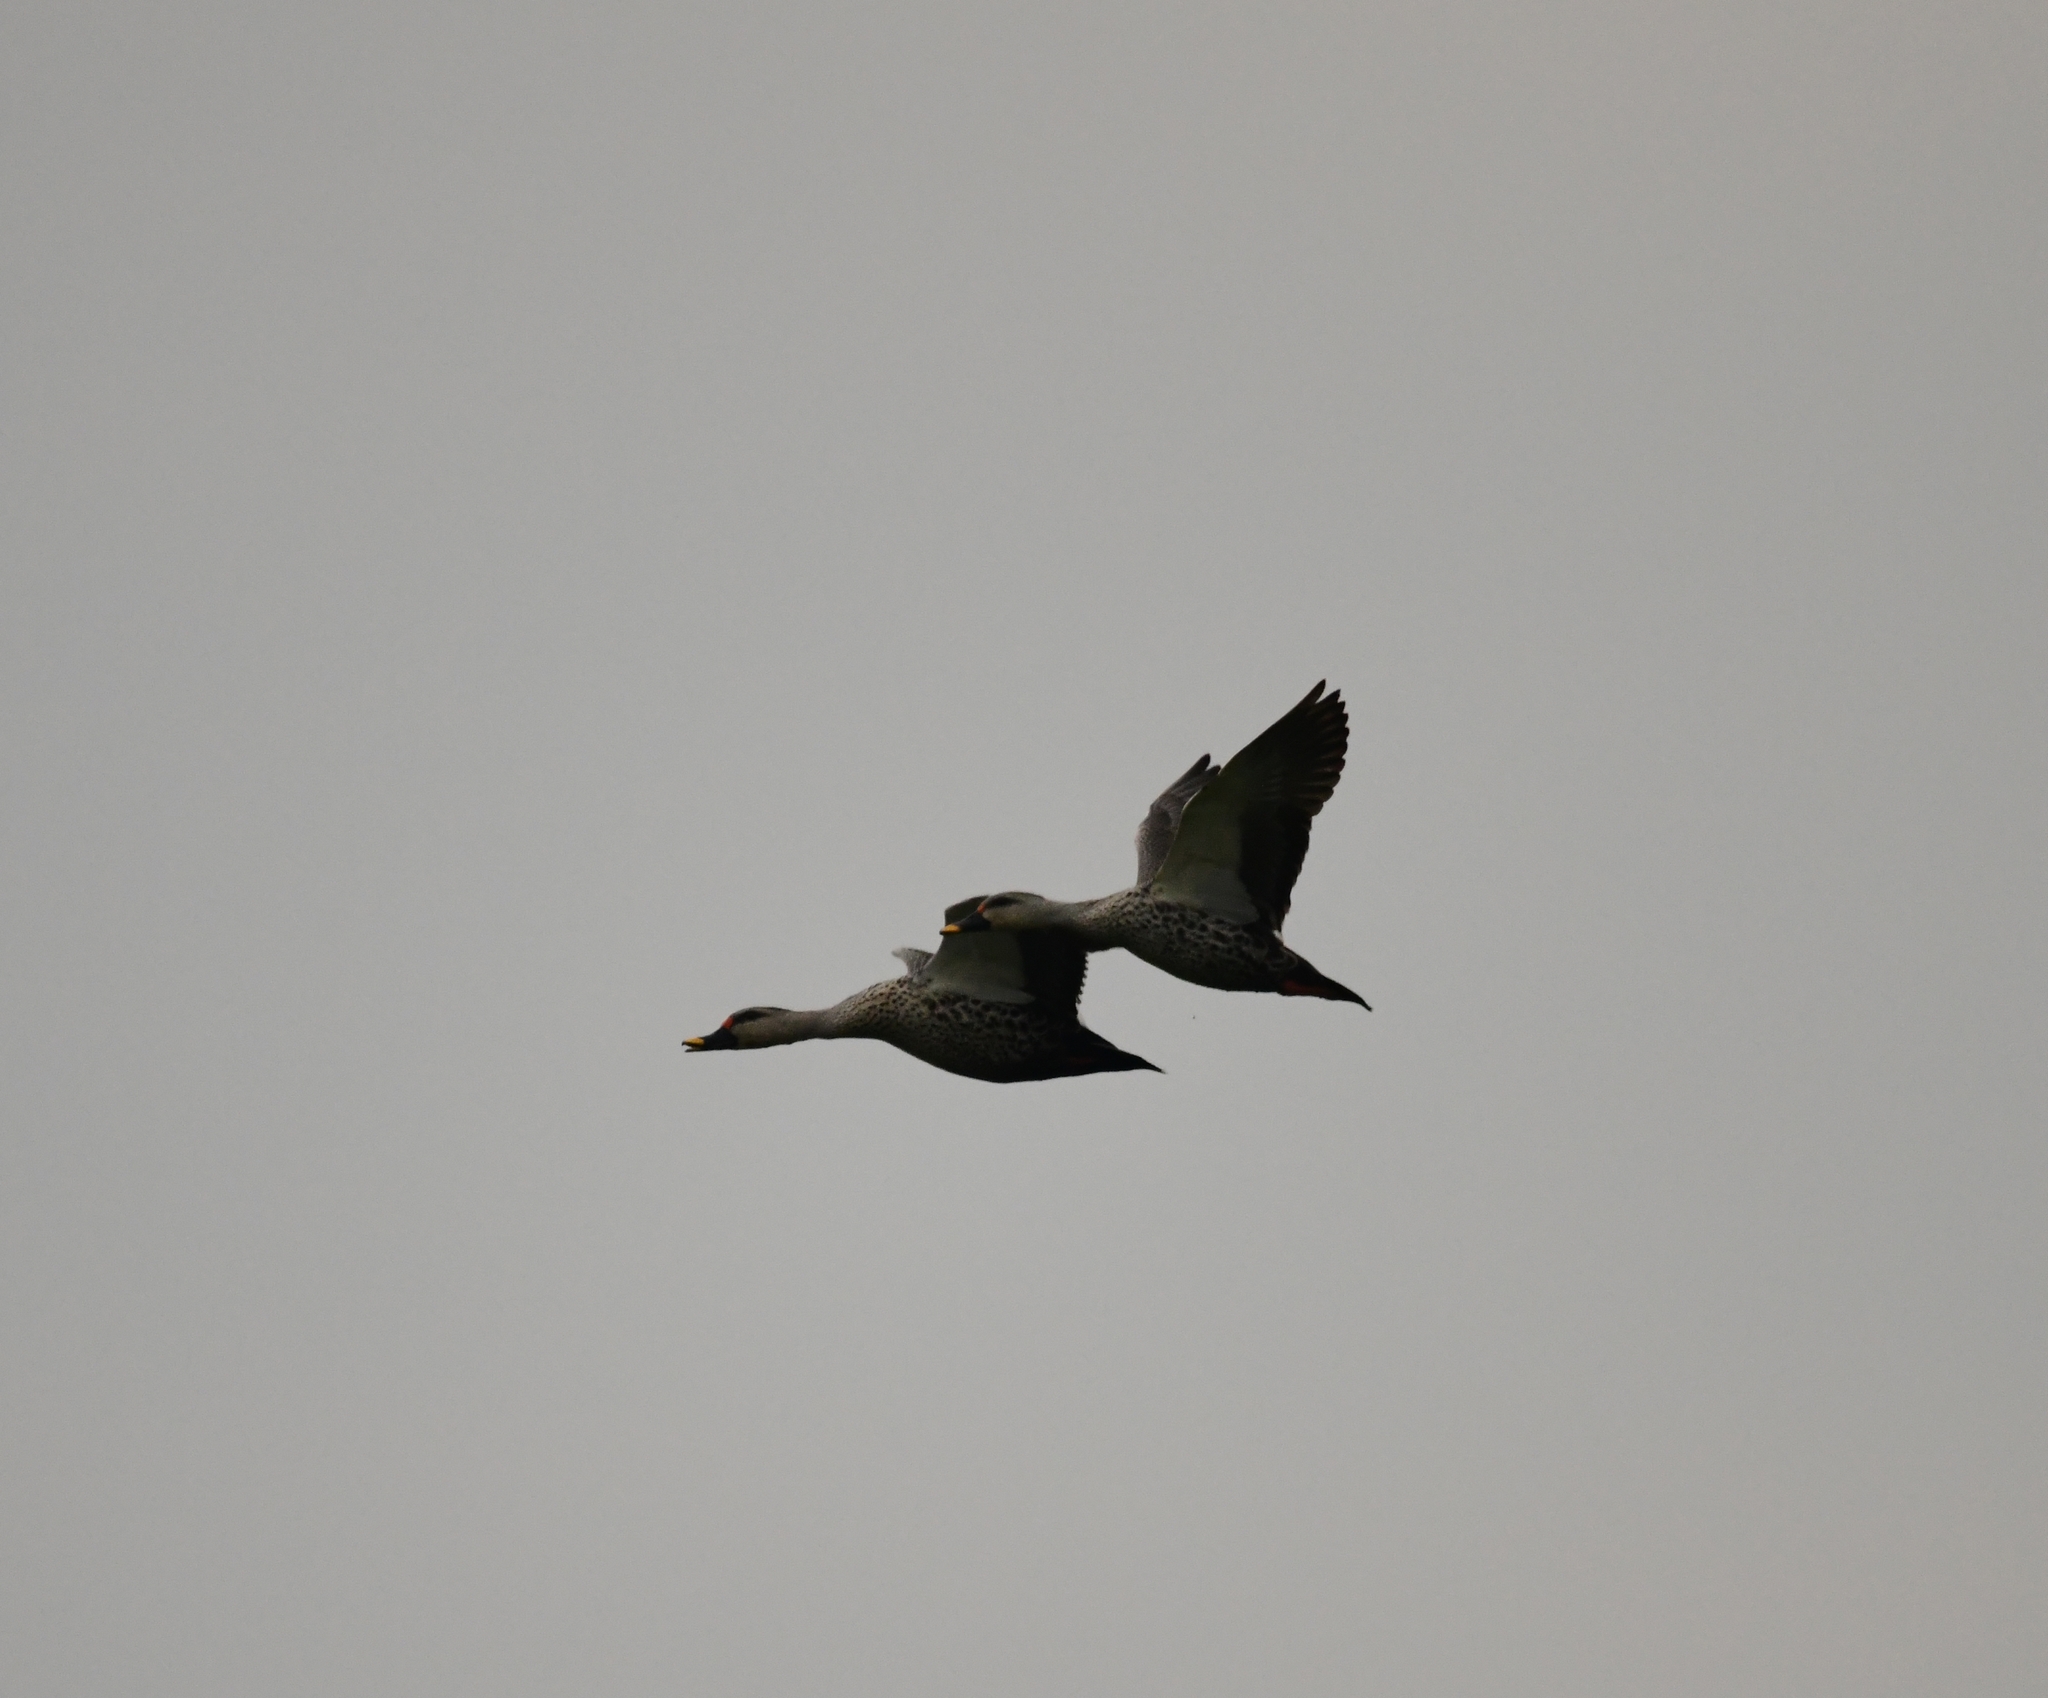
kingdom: Animalia
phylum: Chordata
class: Aves
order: Anseriformes
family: Anatidae
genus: Anas
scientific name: Anas poecilorhyncha
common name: Indian spot-billed duck
